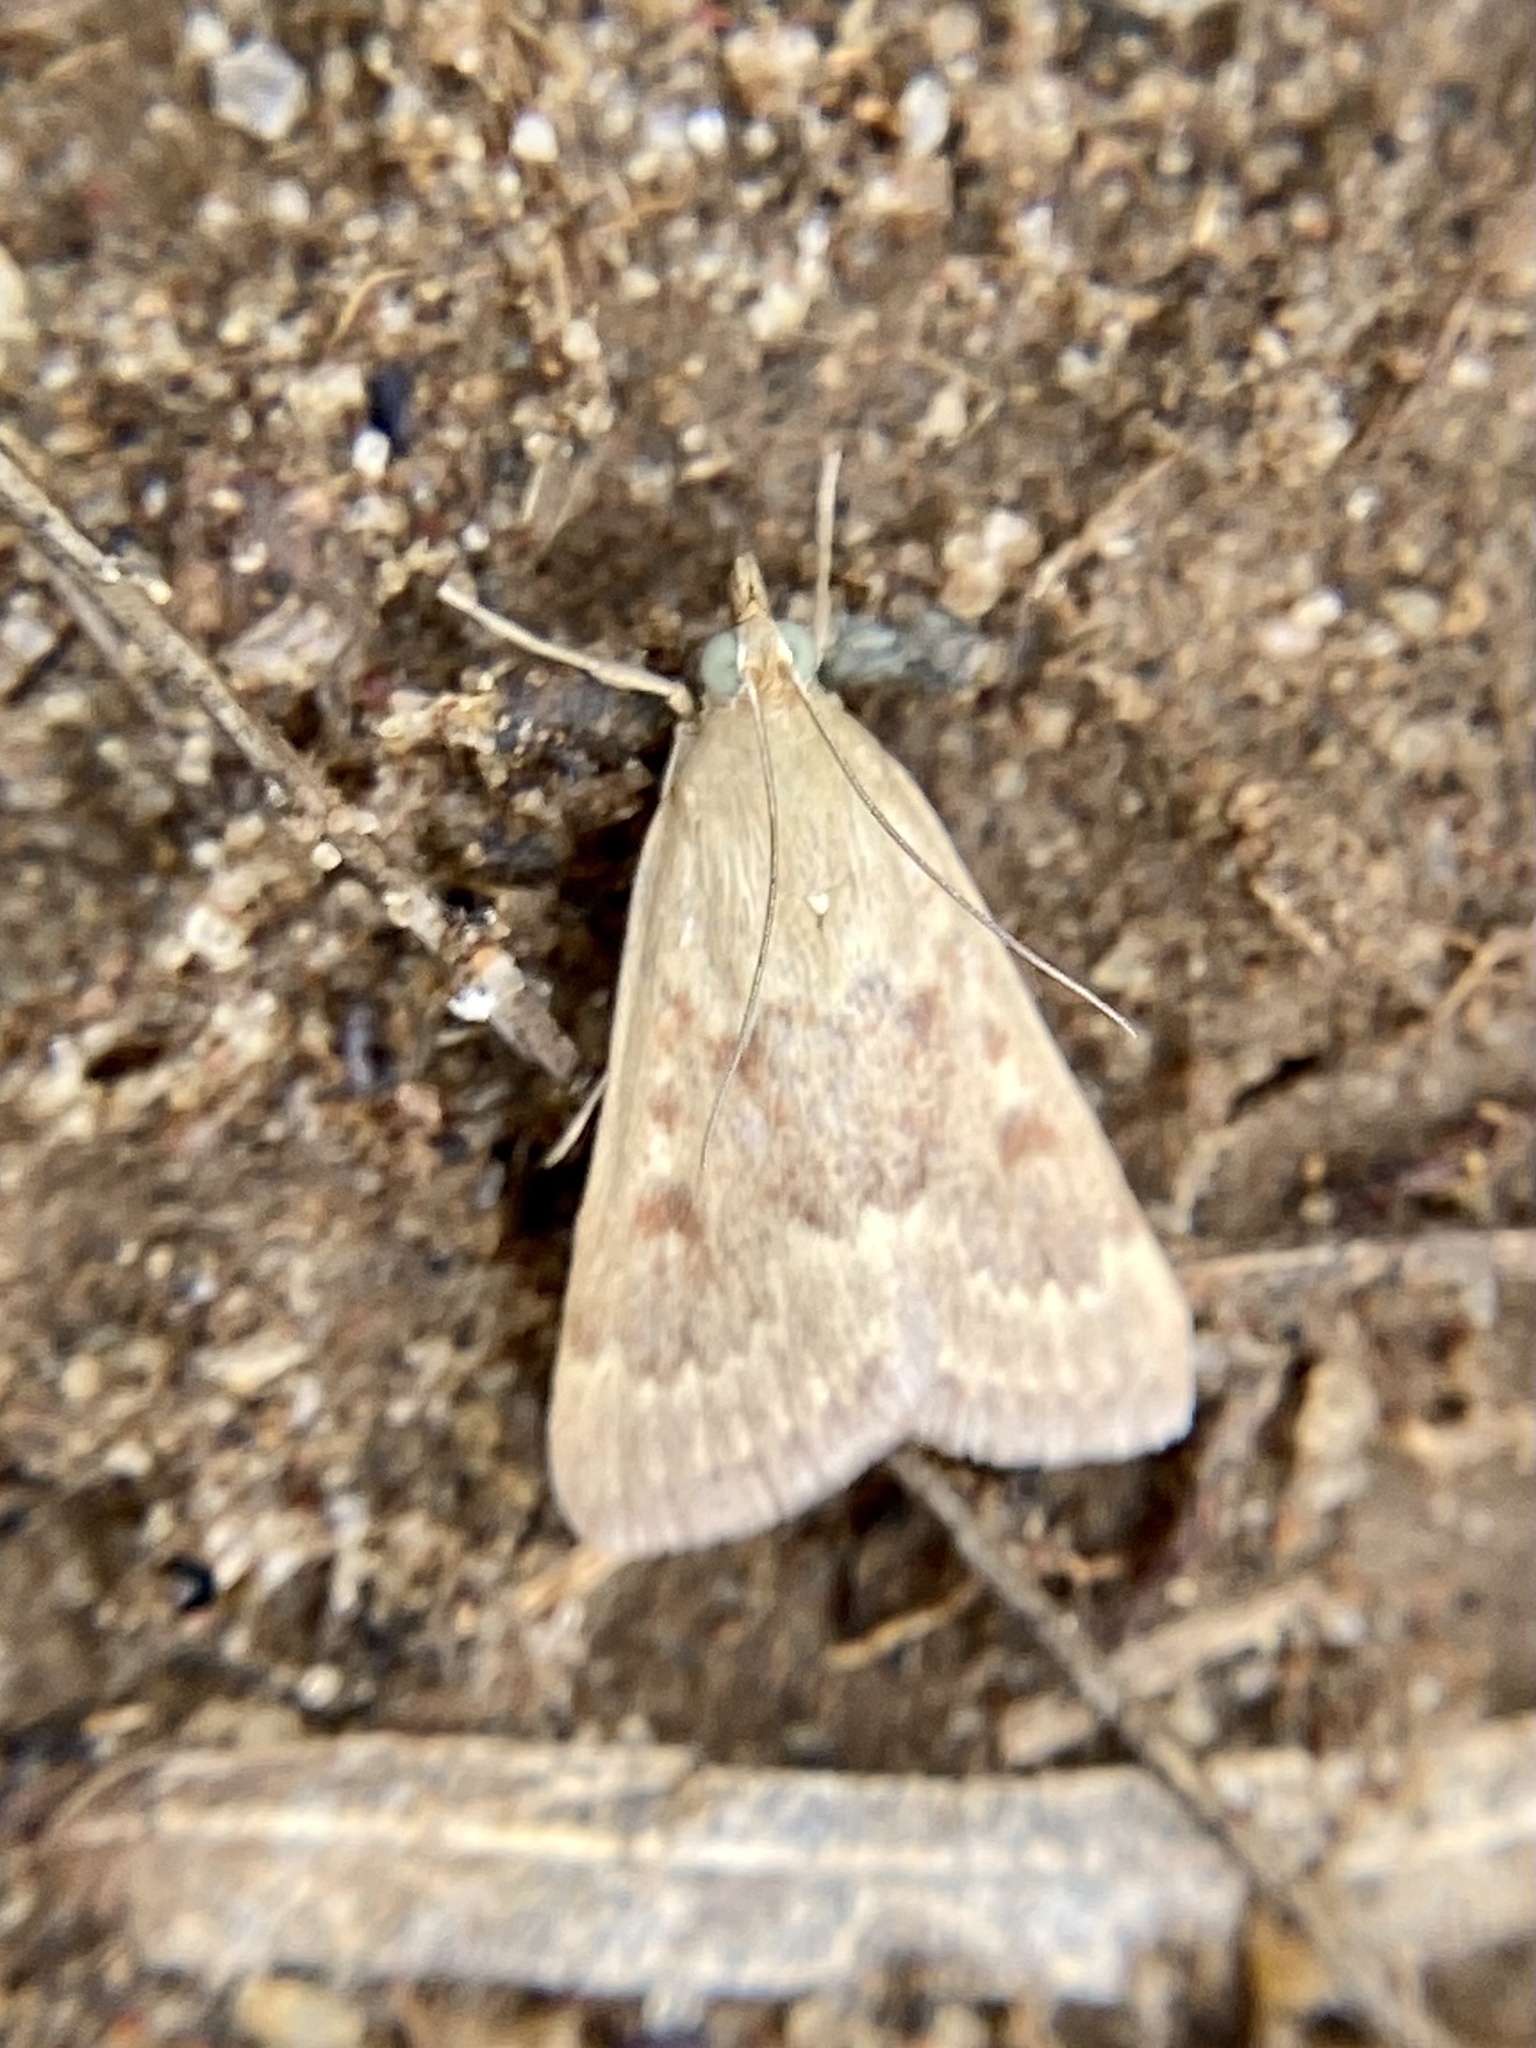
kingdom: Animalia
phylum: Arthropoda
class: Insecta
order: Lepidoptera
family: Crambidae
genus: Achyra
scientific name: Achyra rantalis
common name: Garden webworm
